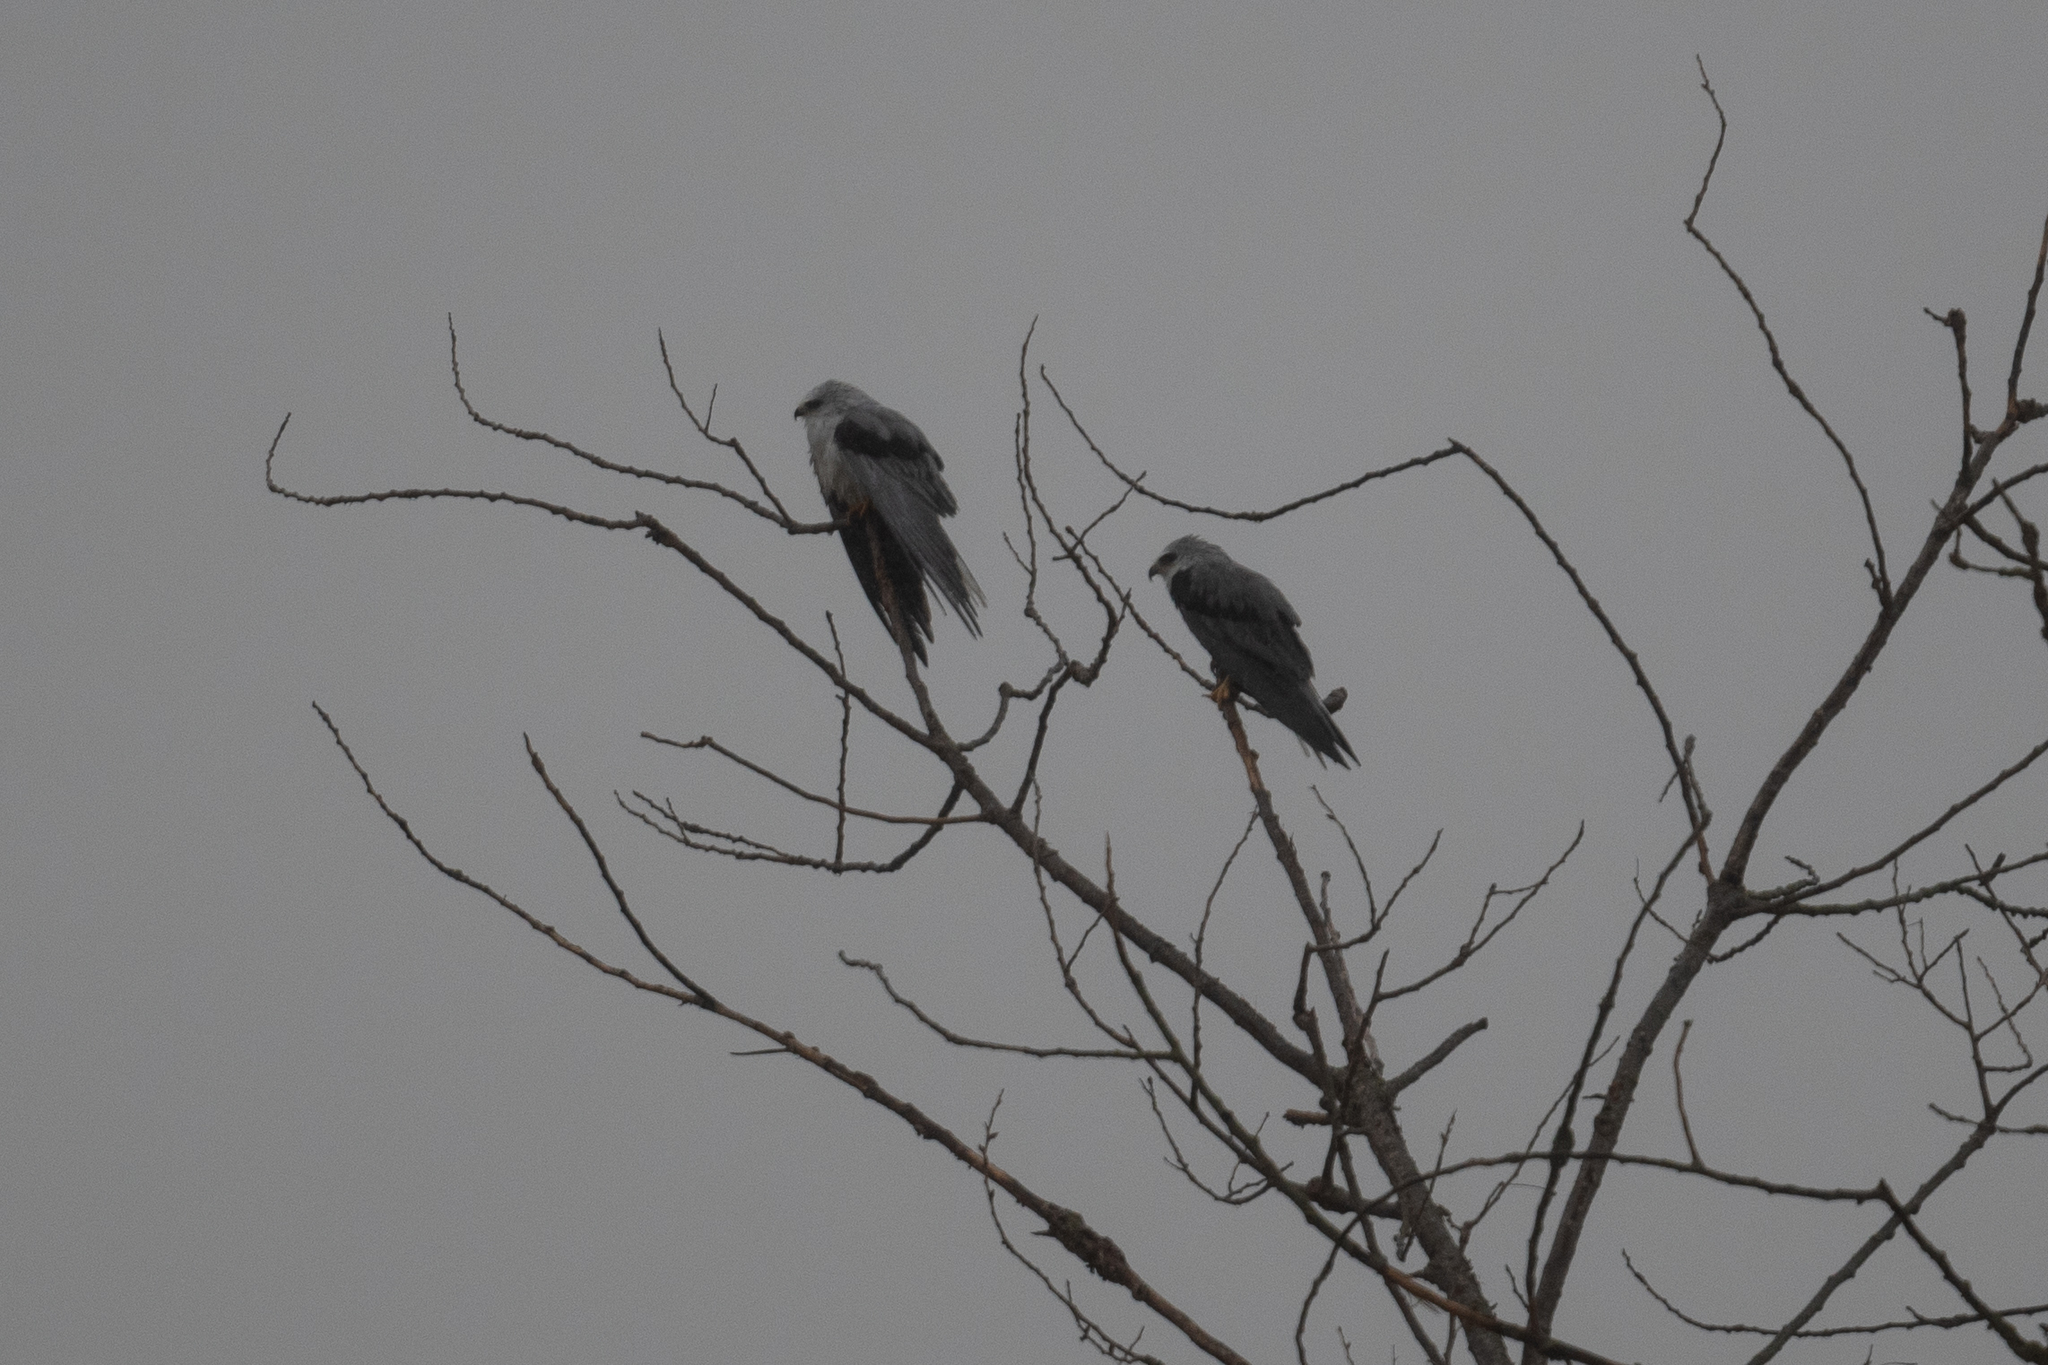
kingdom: Animalia
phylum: Chordata
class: Aves
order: Accipitriformes
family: Accipitridae
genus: Elanus
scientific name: Elanus leucurus
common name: White-tailed kite
